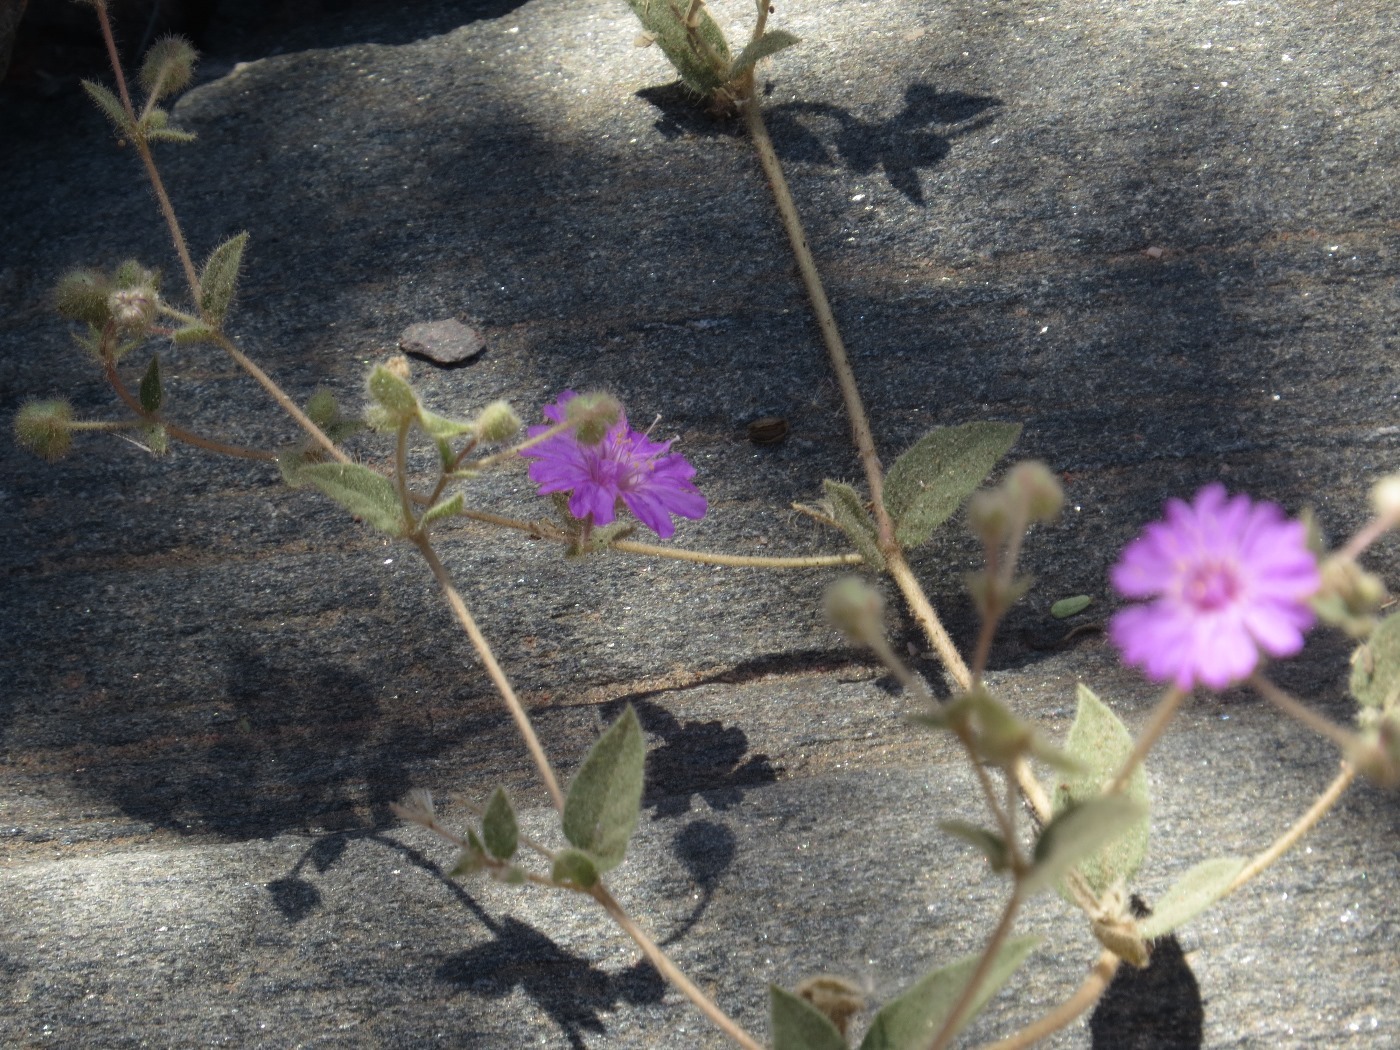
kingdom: Plantae
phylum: Tracheophyta
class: Magnoliopsida
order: Caryophyllales
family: Nyctaginaceae
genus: Allionia
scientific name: Allionia incarnata
